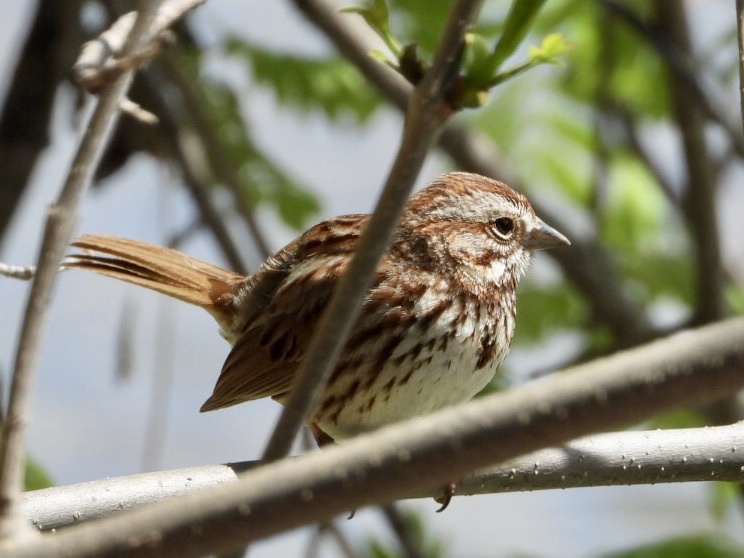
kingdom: Animalia
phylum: Chordata
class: Aves
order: Passeriformes
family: Passerellidae
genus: Melospiza
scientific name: Melospiza melodia
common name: Song sparrow
